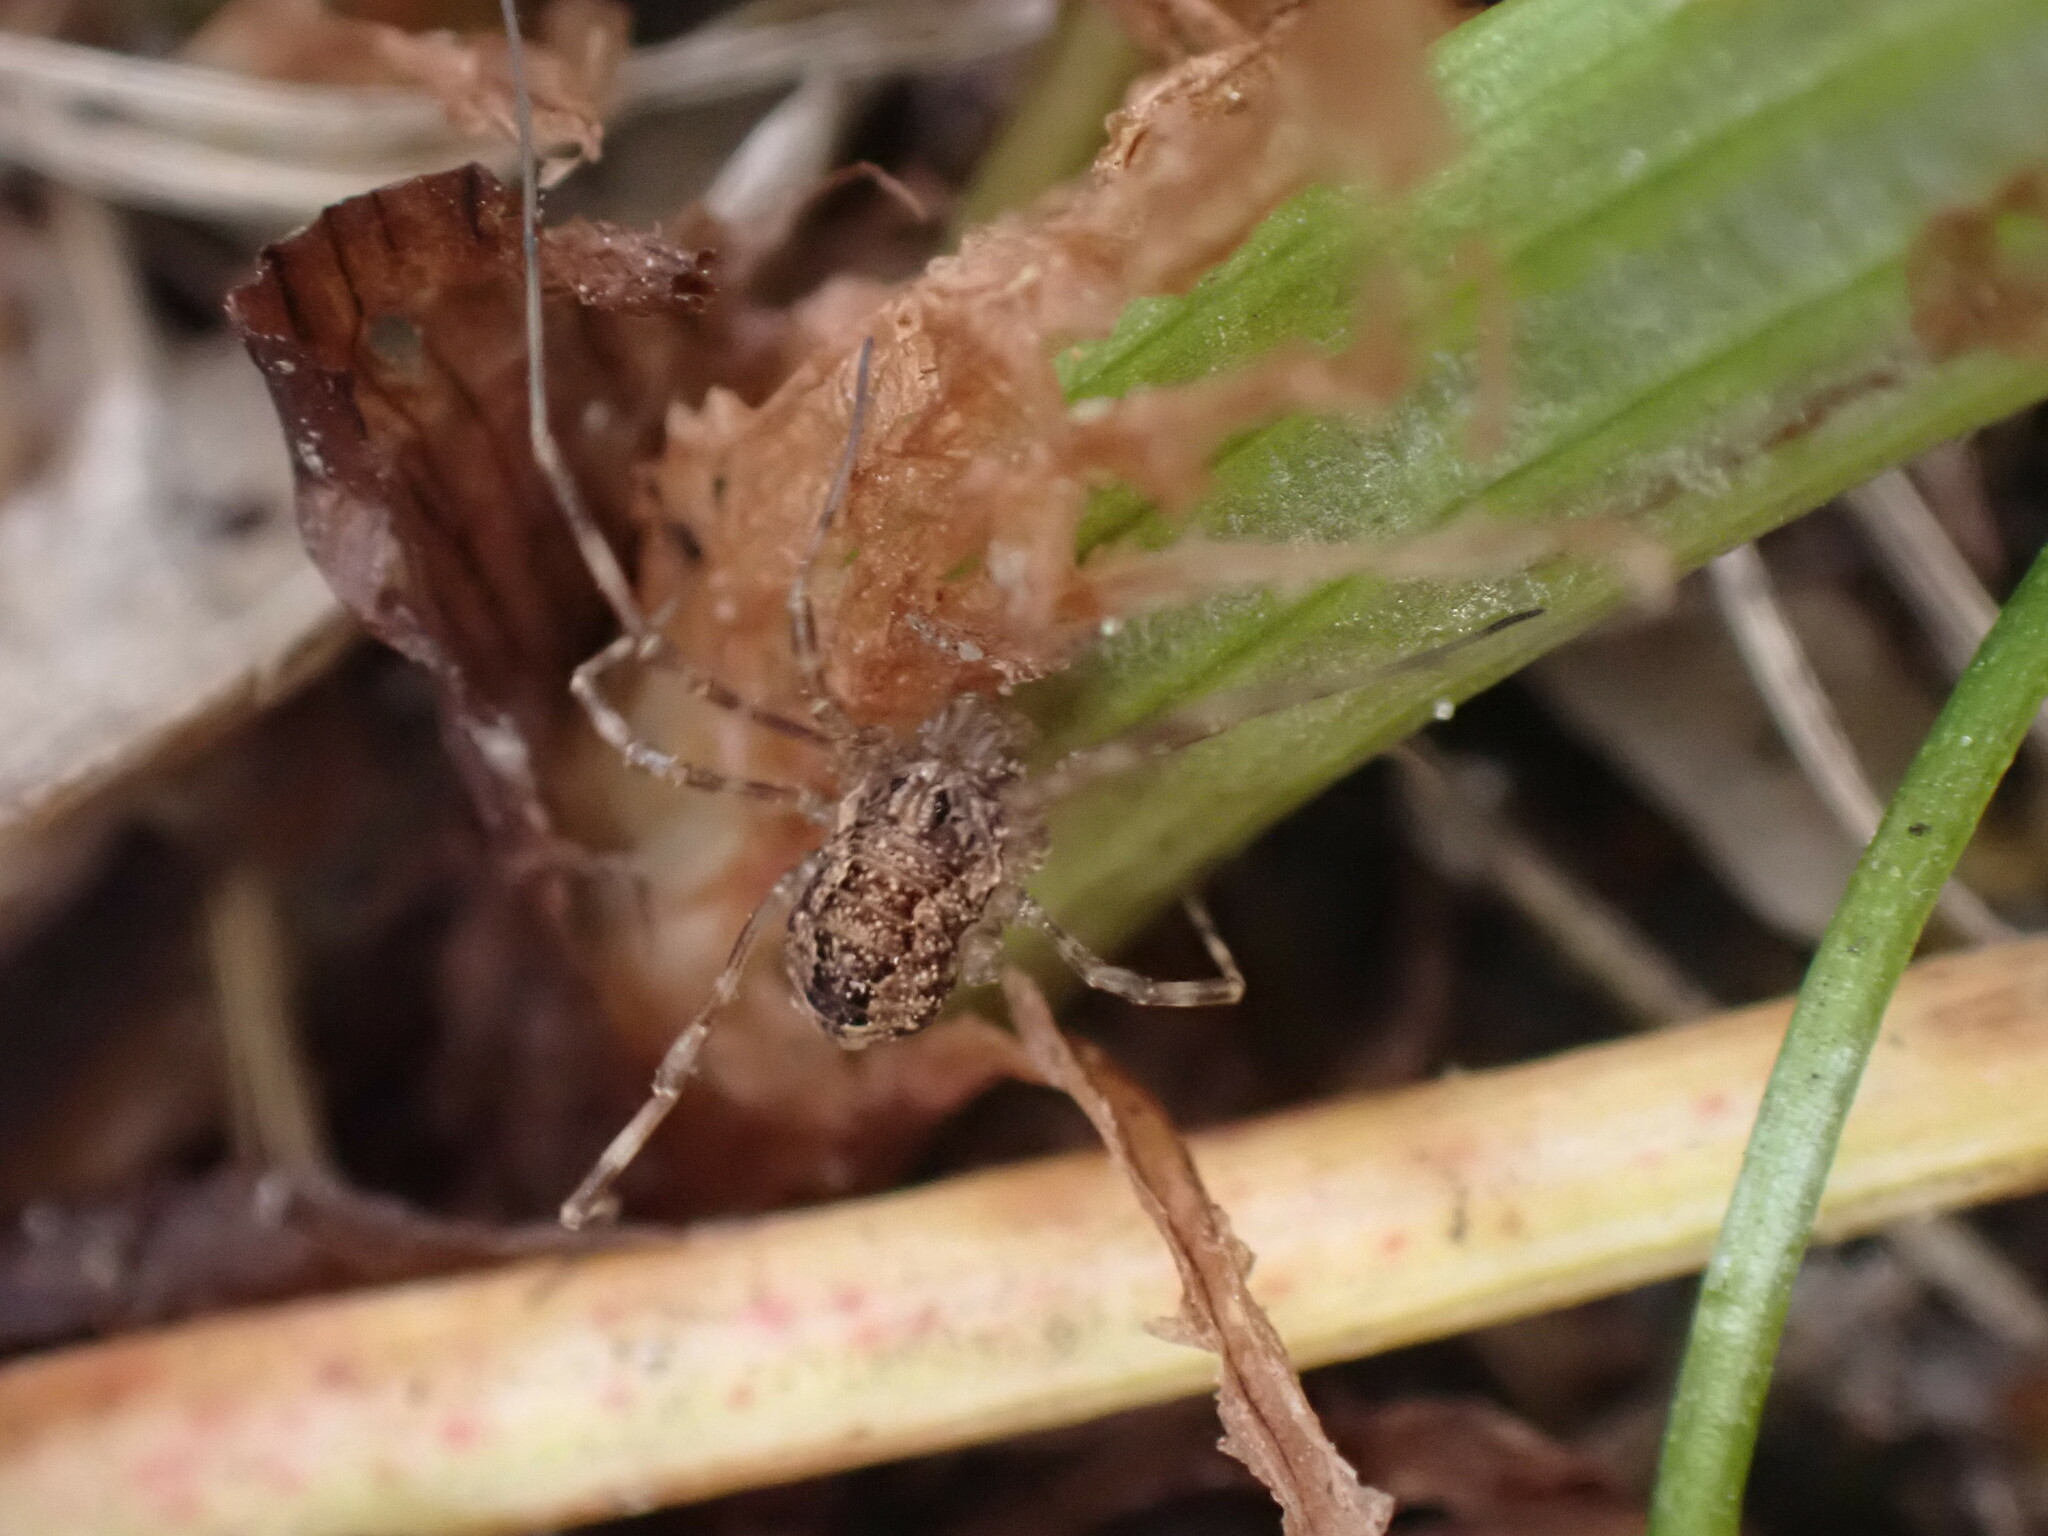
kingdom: Animalia
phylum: Arthropoda
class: Arachnida
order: Opiliones
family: Phalangiidae
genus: Rilaena
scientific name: Rilaena triangularis
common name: Spring harvestman
